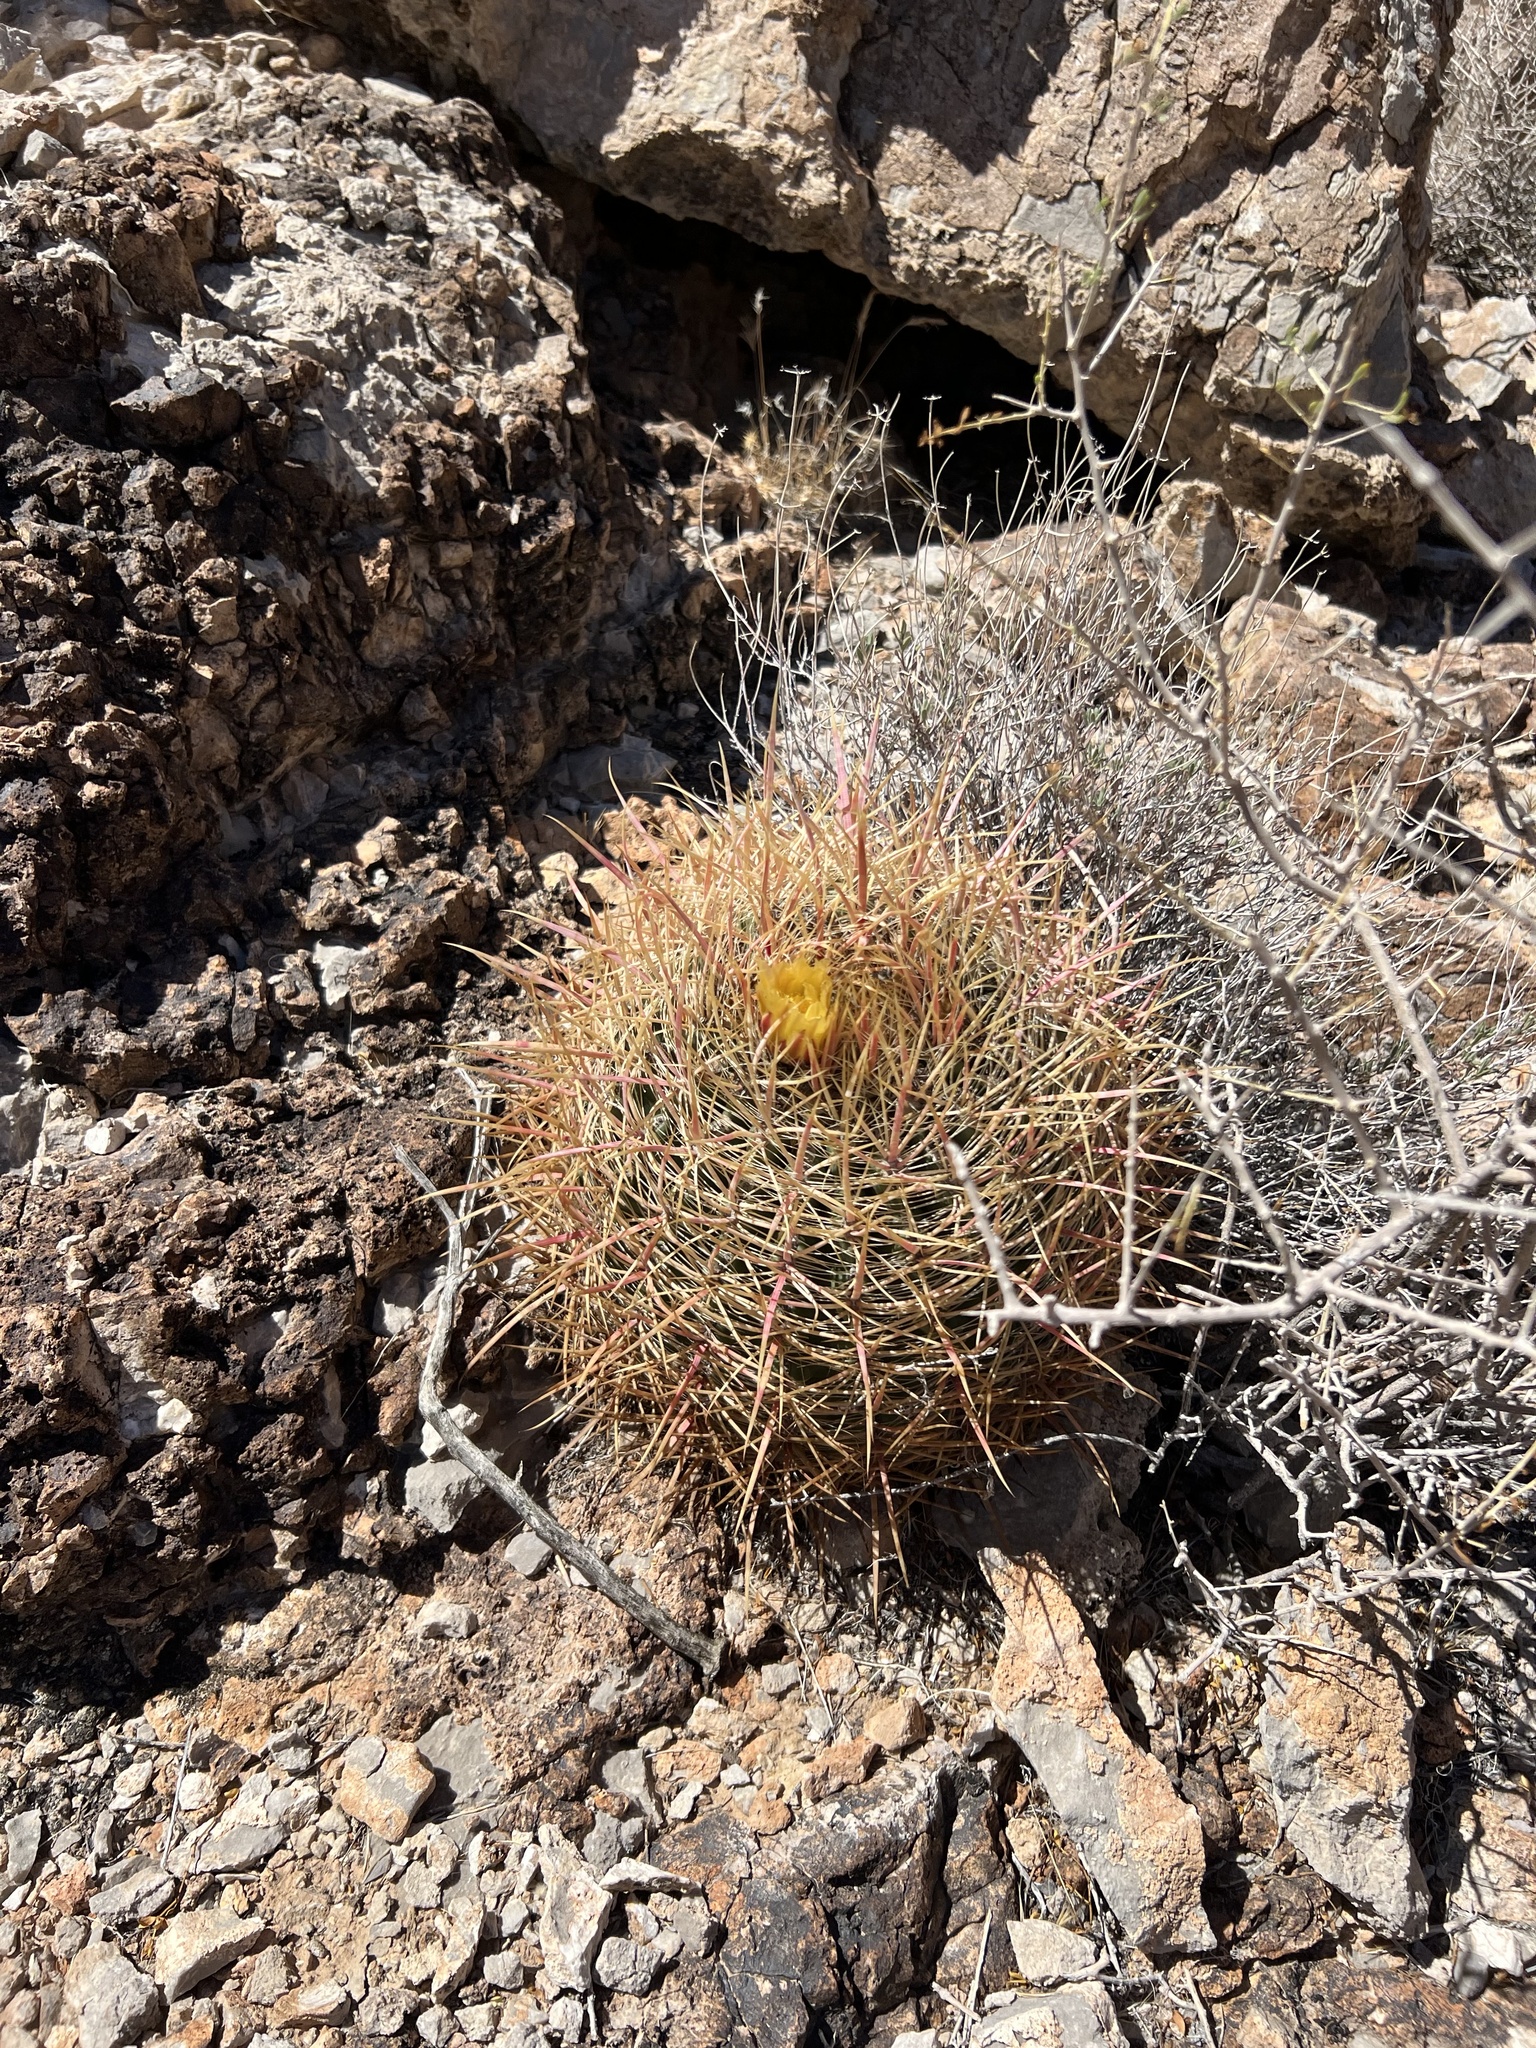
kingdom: Plantae
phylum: Tracheophyta
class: Magnoliopsida
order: Caryophyllales
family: Cactaceae
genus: Ferocactus
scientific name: Ferocactus cylindraceus
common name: California barrel cactus
